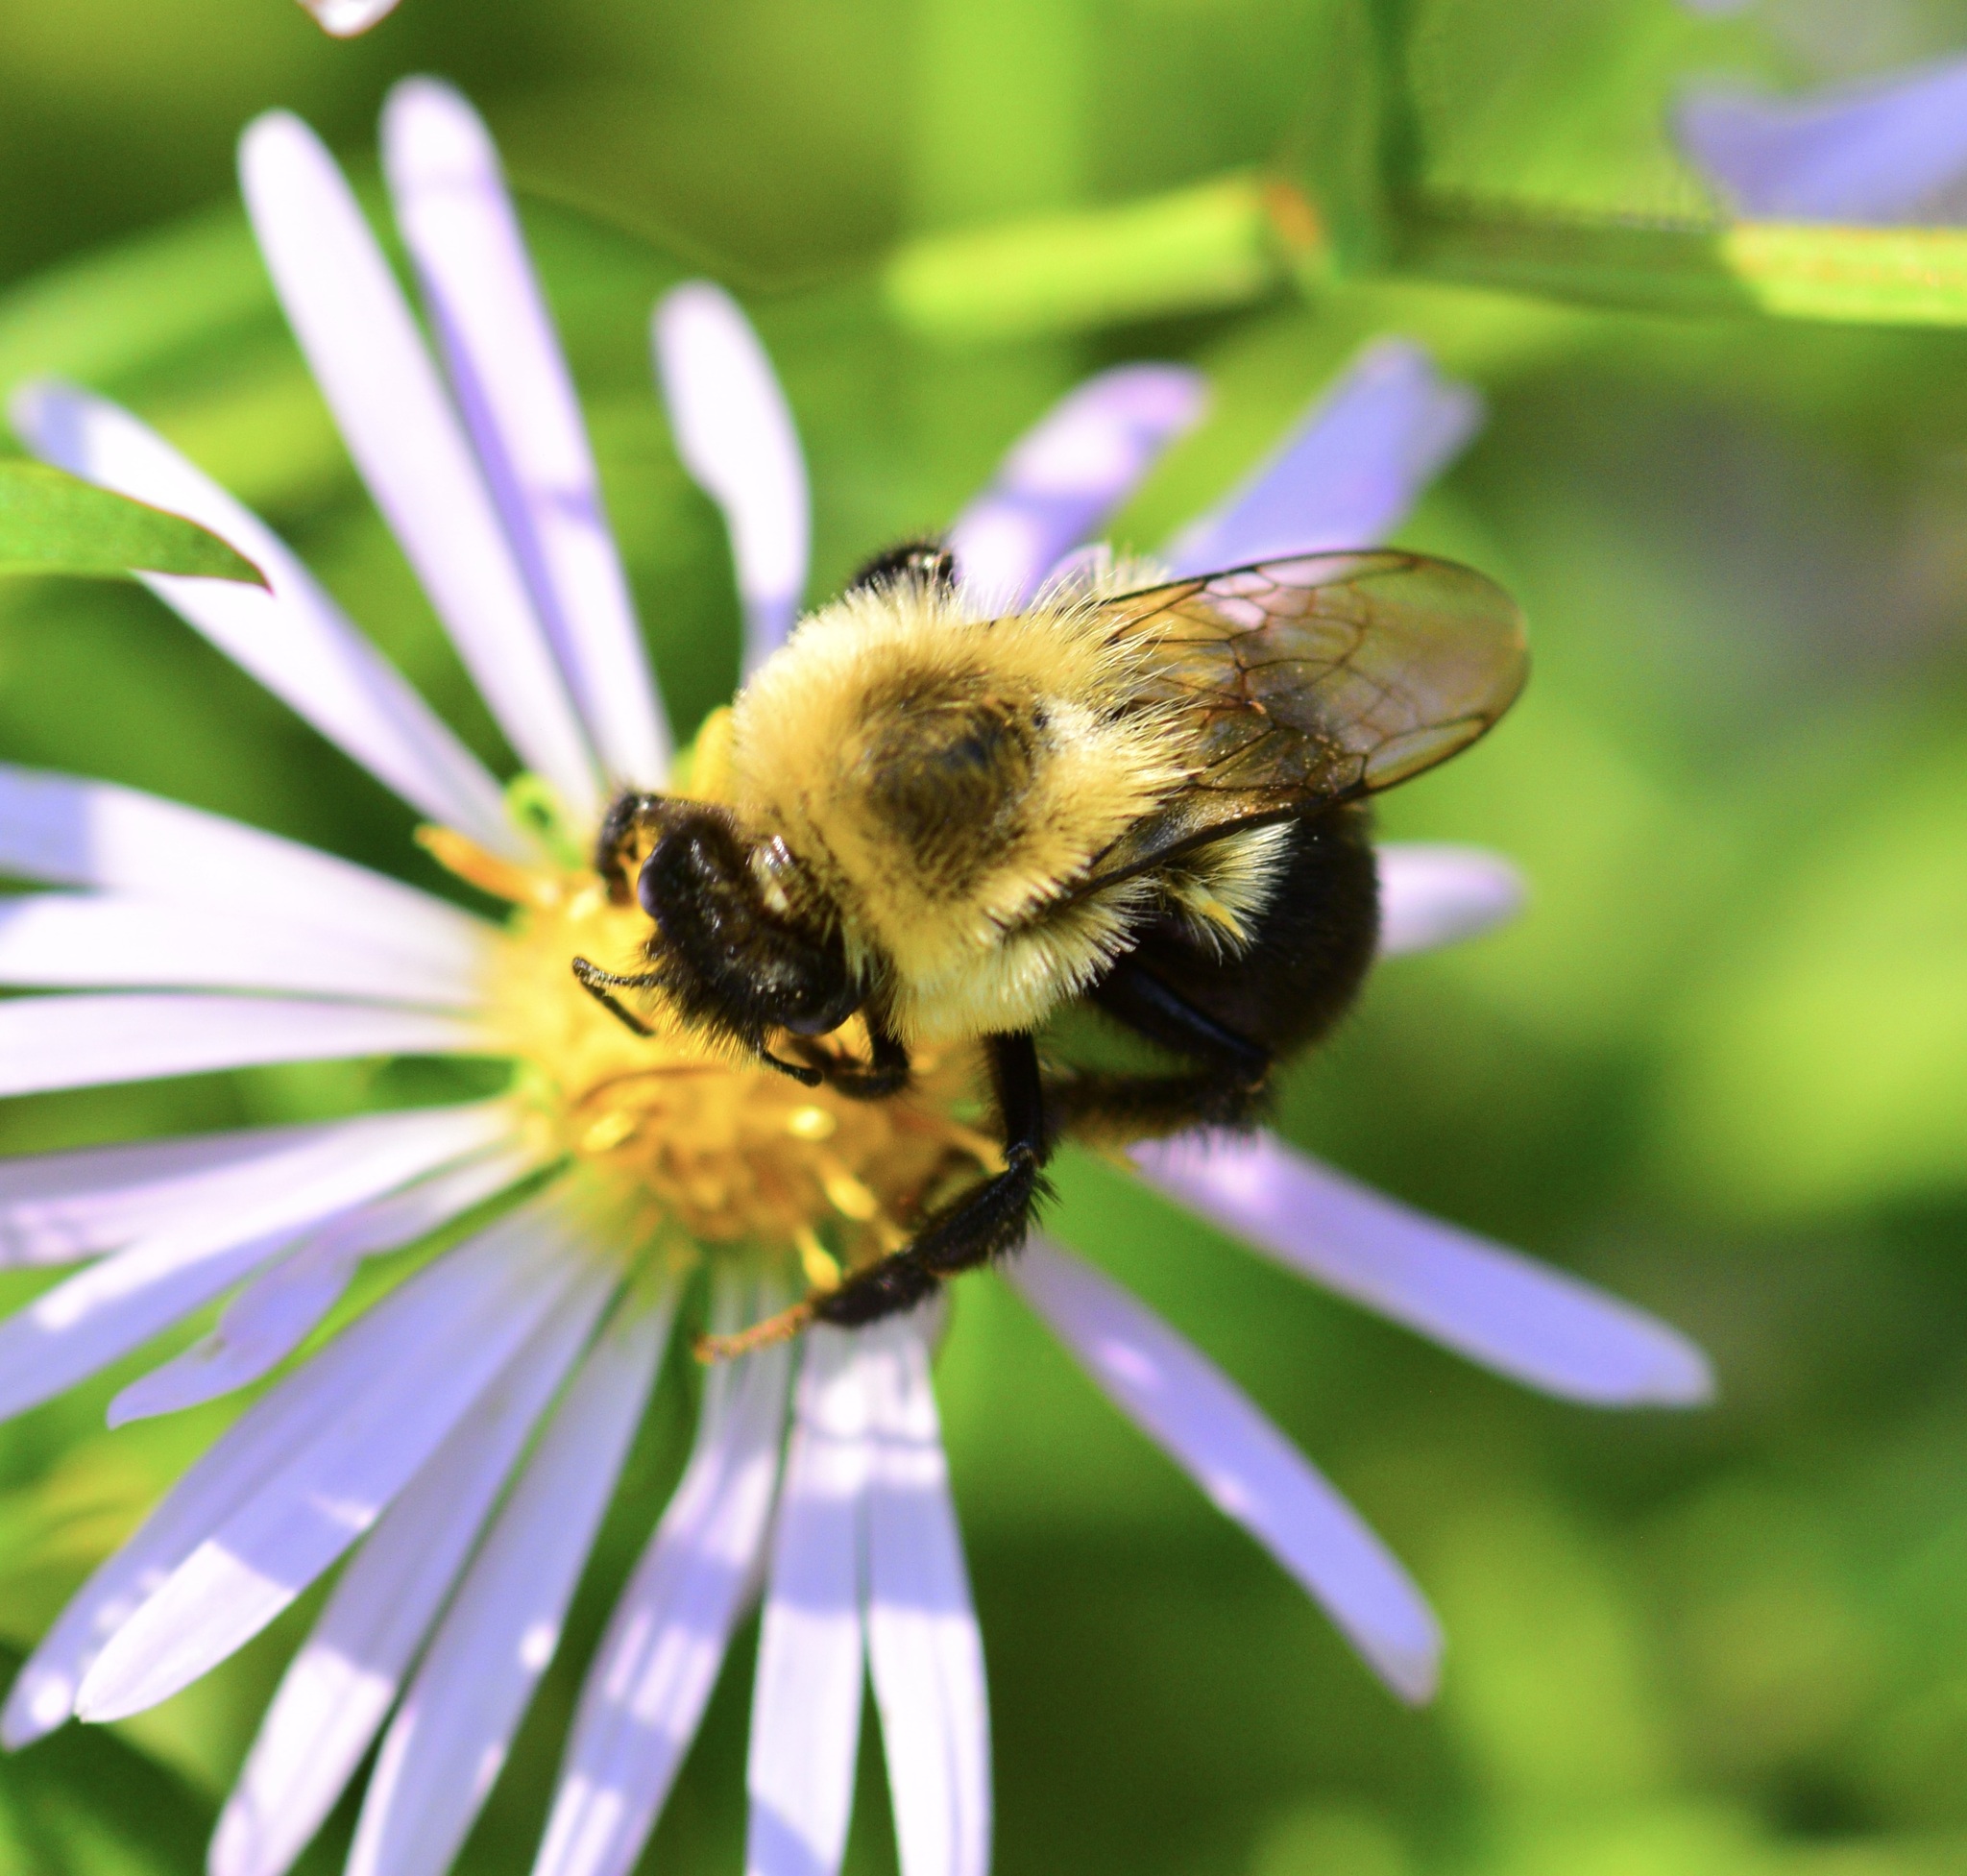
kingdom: Animalia
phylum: Arthropoda
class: Insecta
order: Hymenoptera
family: Apidae
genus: Bombus
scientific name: Bombus impatiens
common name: Common eastern bumble bee
